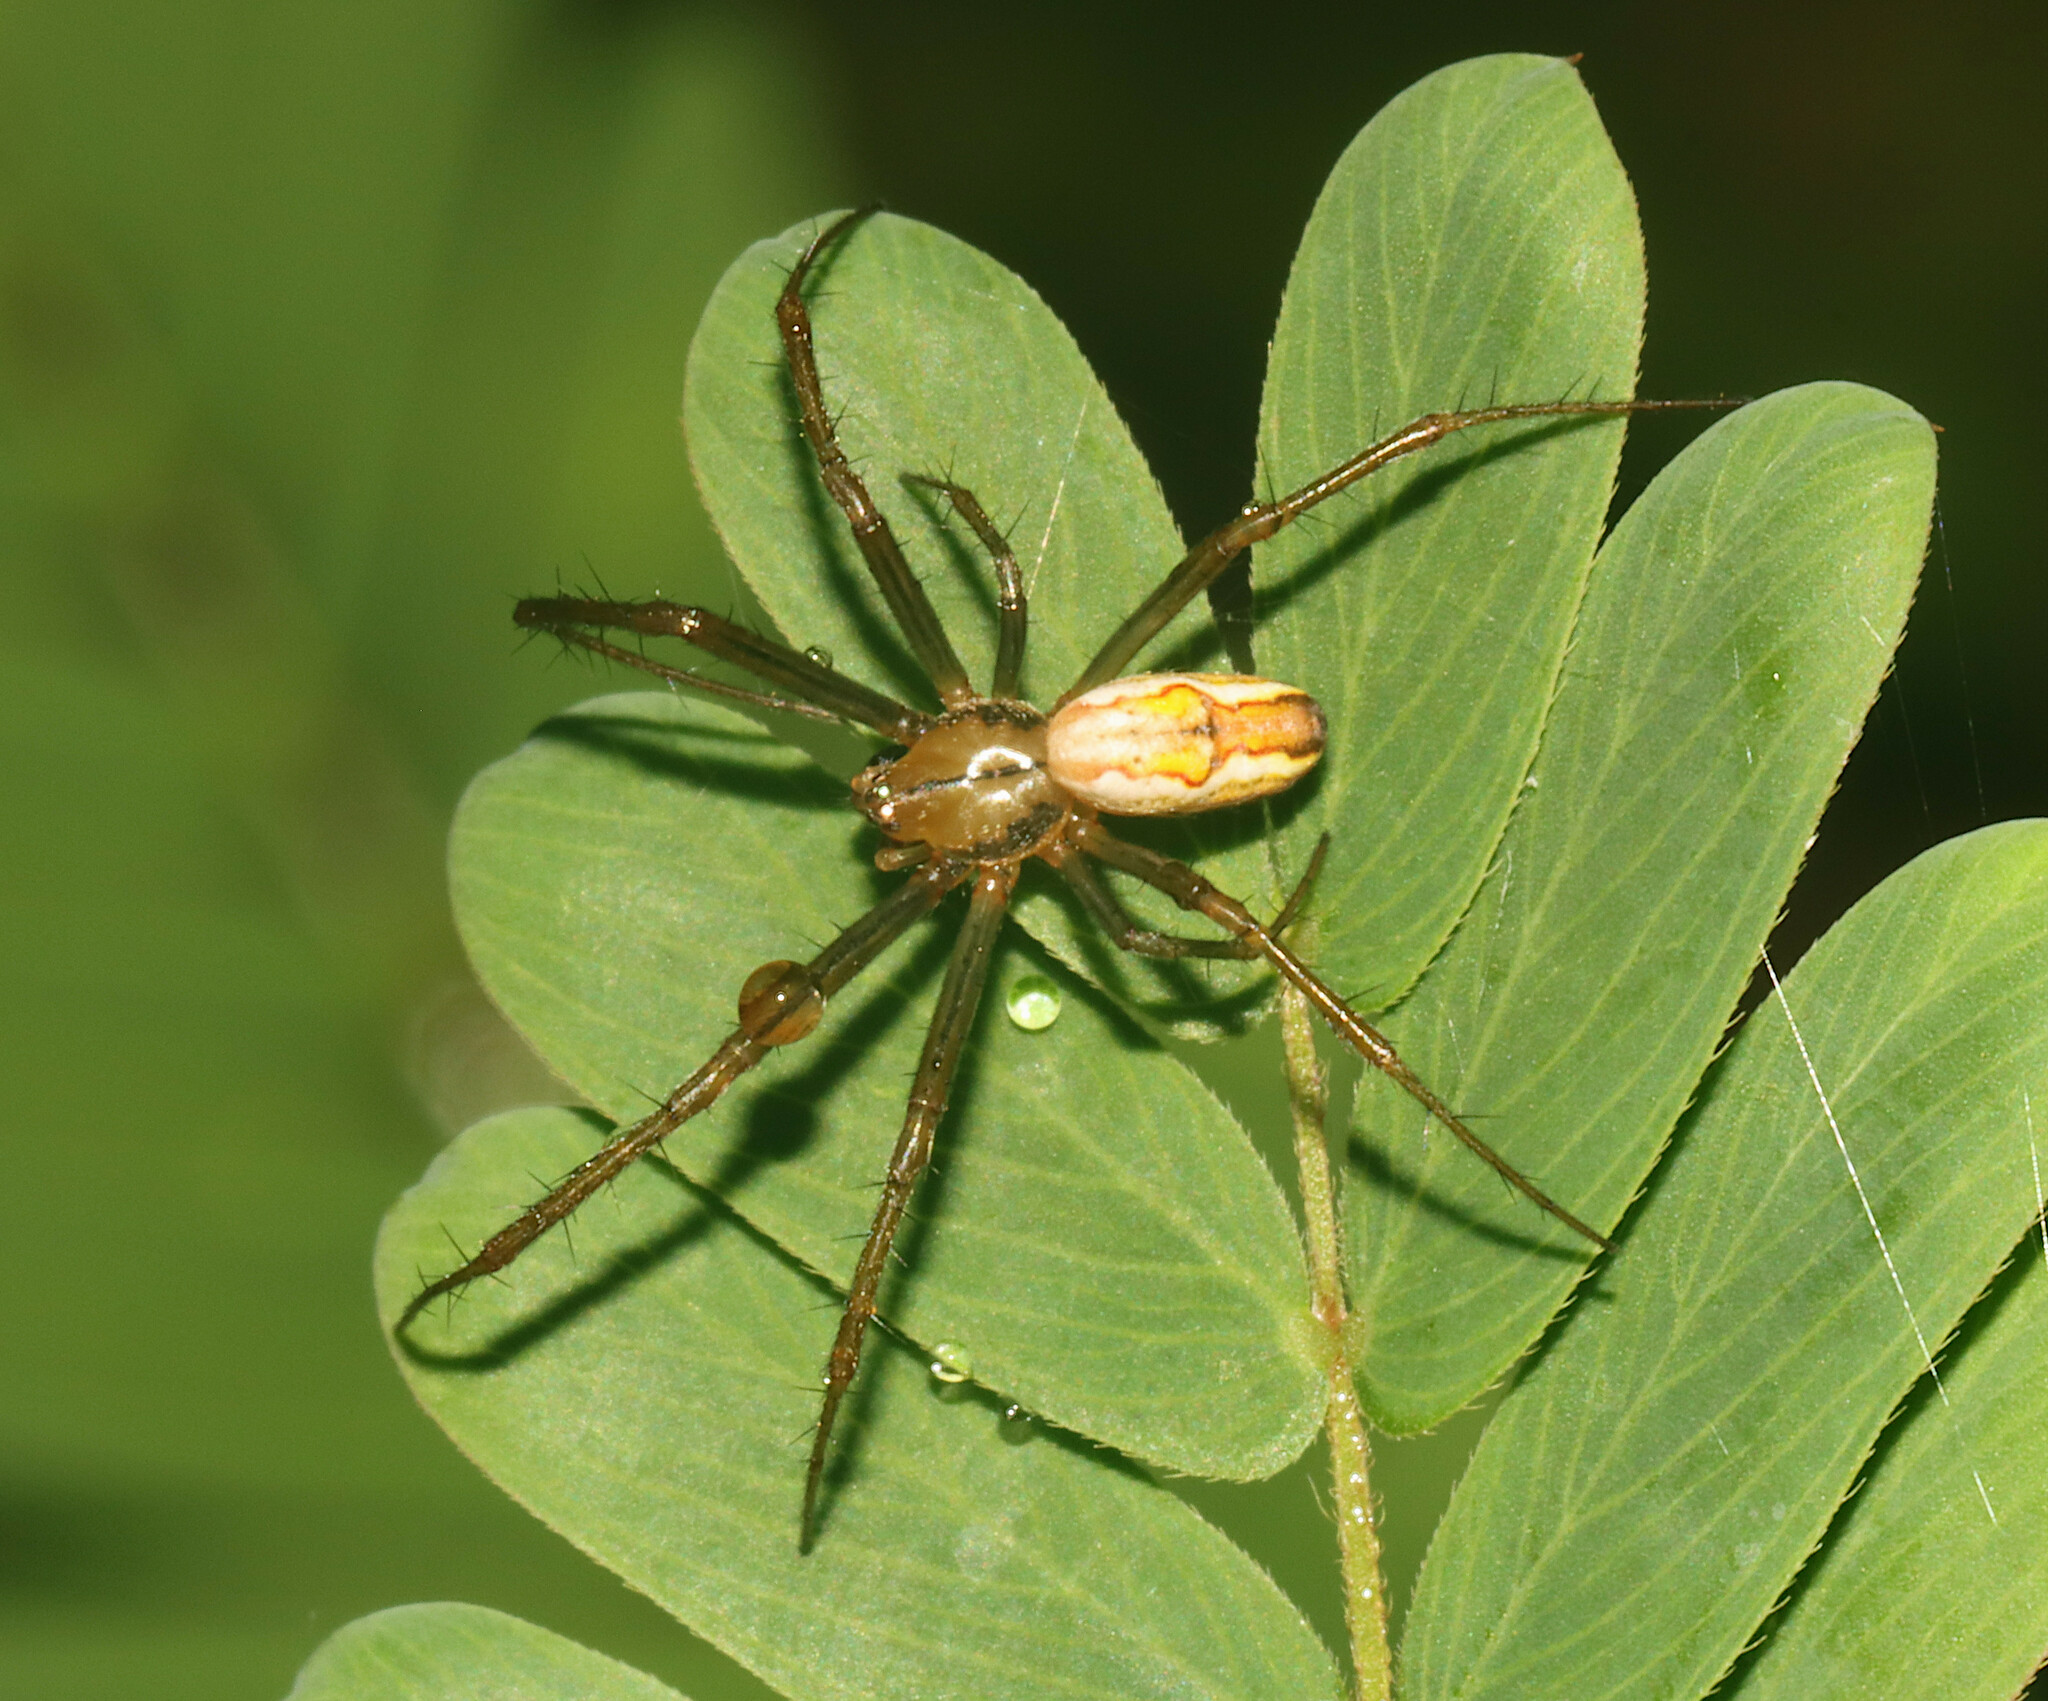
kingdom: Animalia
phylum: Arthropoda
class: Arachnida
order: Araneae
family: Araneidae
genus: Mecynogea
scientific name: Mecynogea lemniscata
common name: Orb weavers
